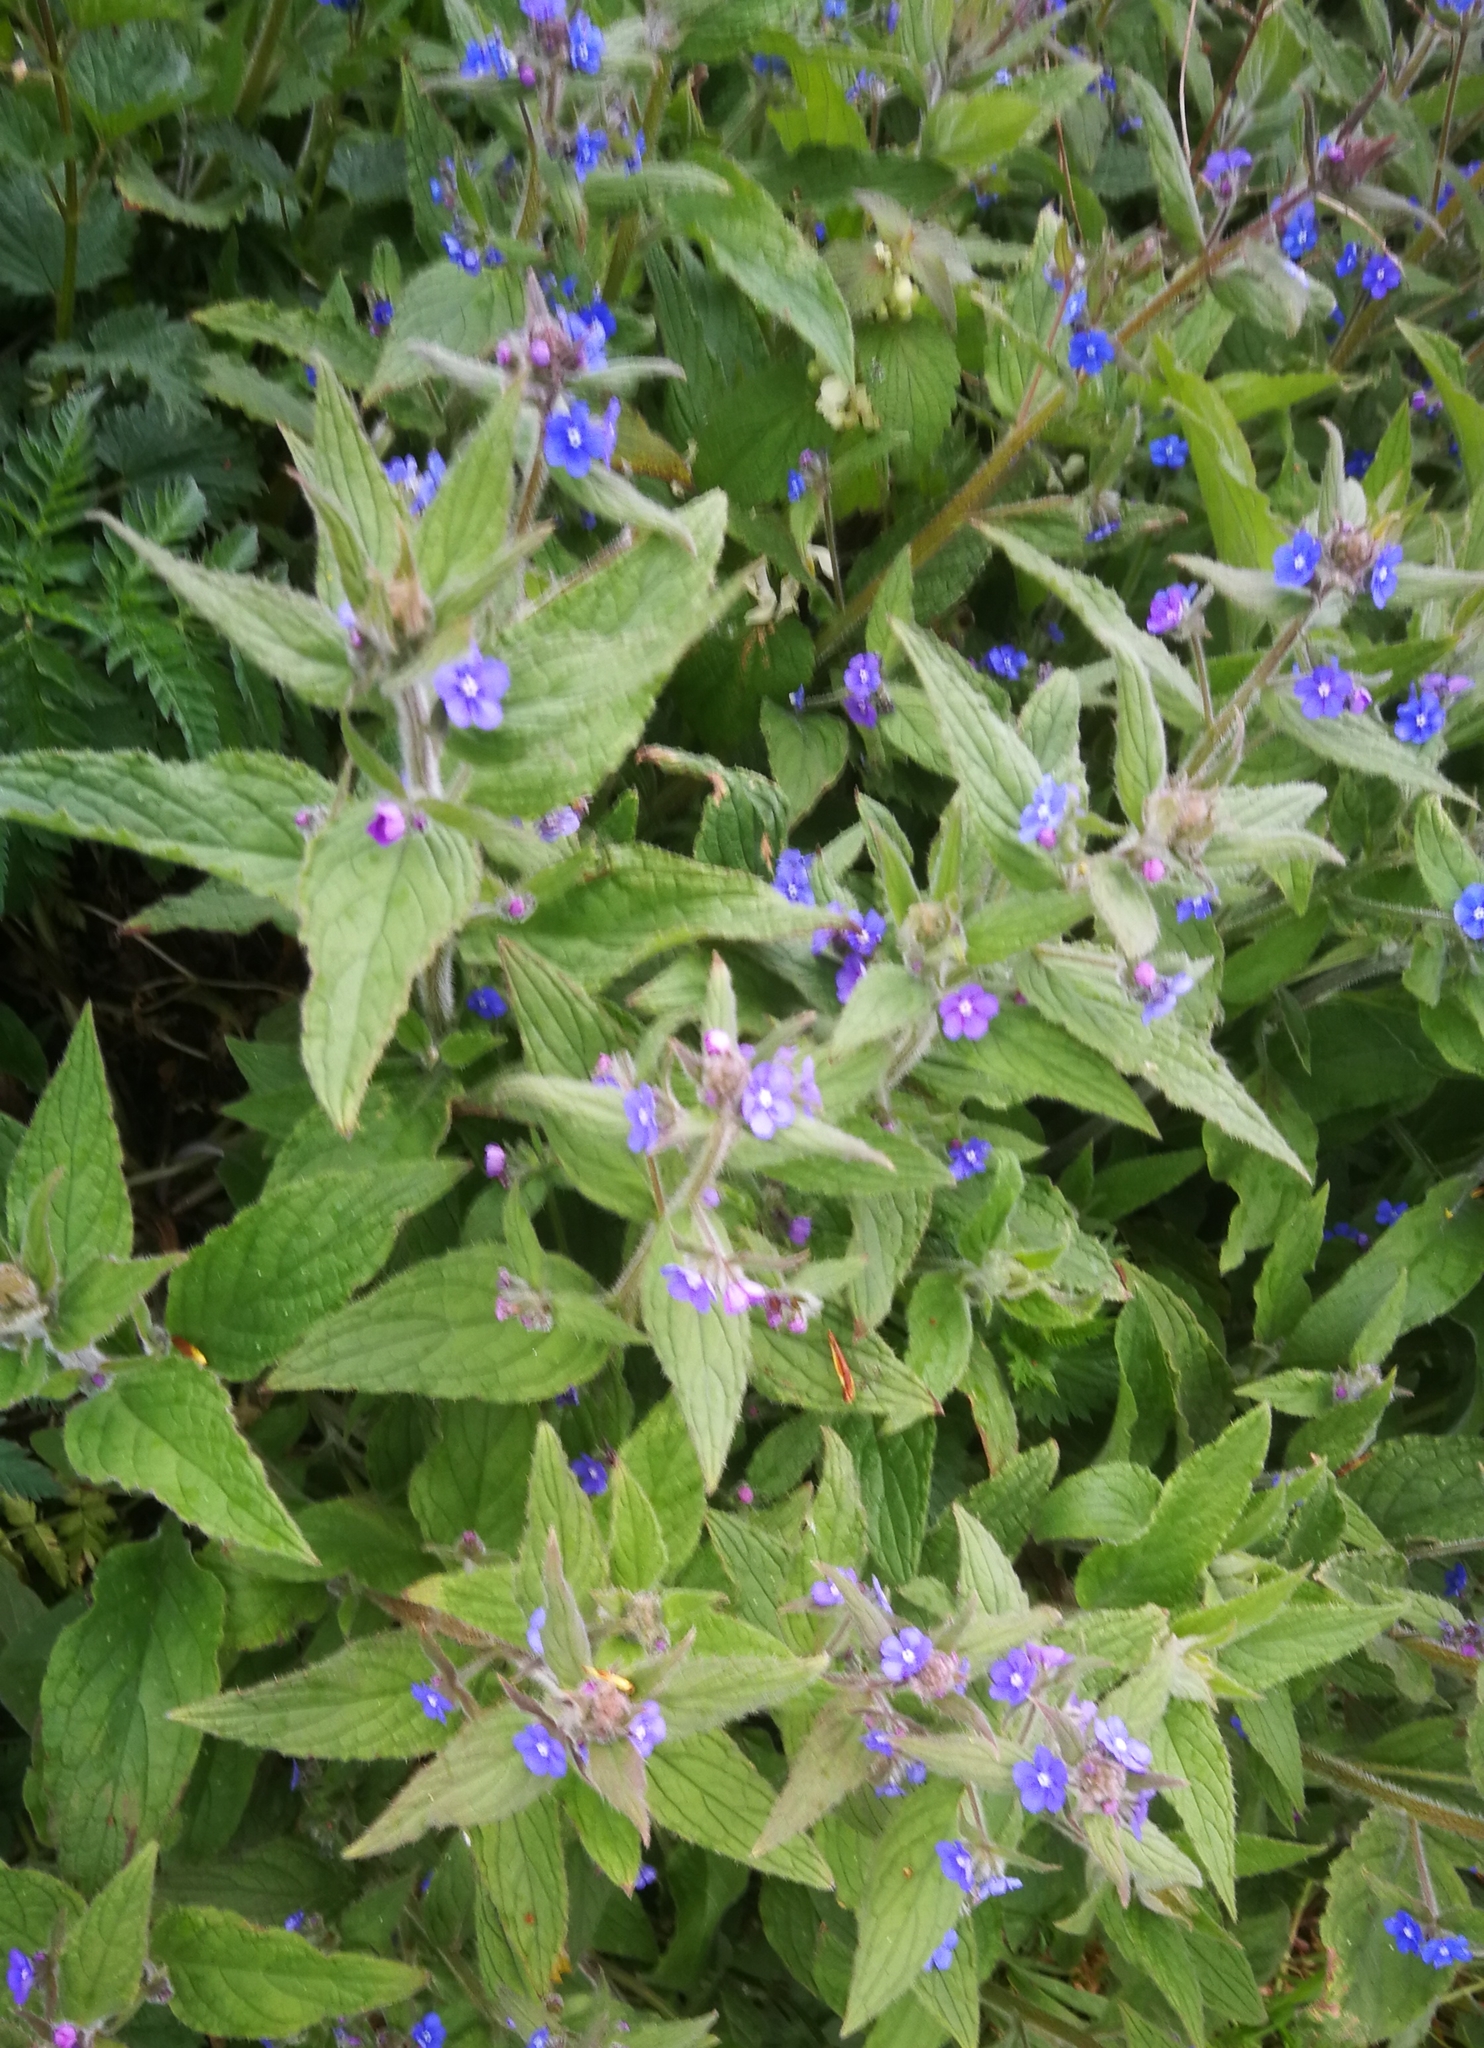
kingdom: Plantae
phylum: Tracheophyta
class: Magnoliopsida
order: Boraginales
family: Boraginaceae
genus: Pentaglottis
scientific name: Pentaglottis sempervirens
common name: Green alkanet
